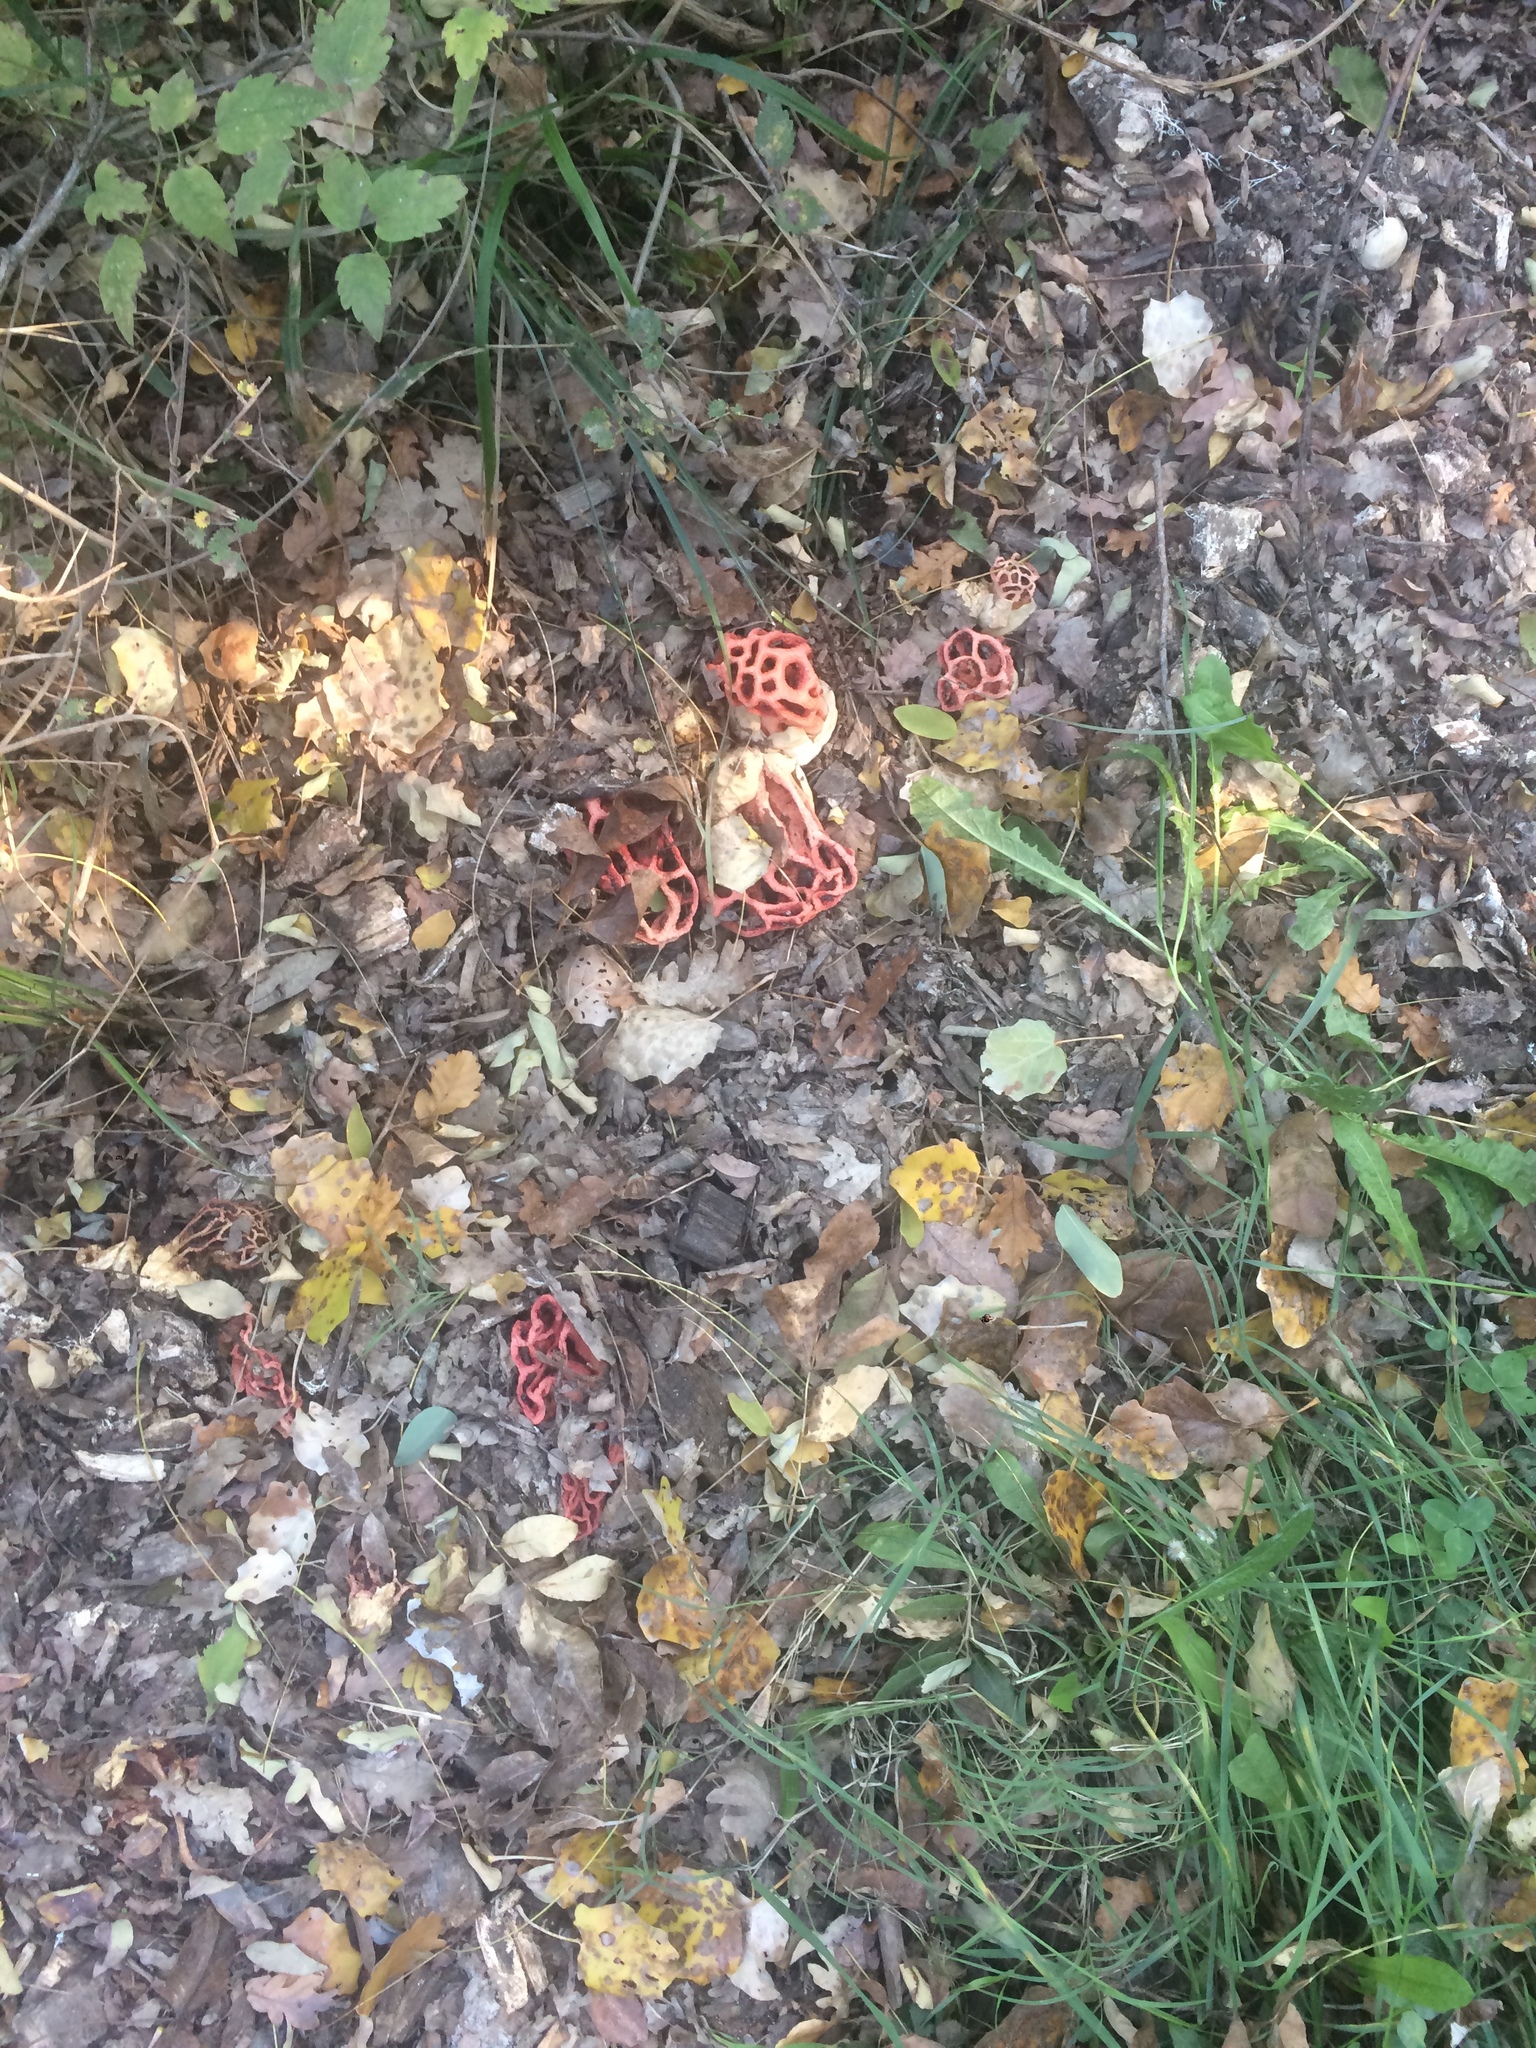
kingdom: Fungi
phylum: Basidiomycota
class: Agaricomycetes
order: Phallales
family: Phallaceae
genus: Clathrus
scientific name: Clathrus ruber
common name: Red cage
